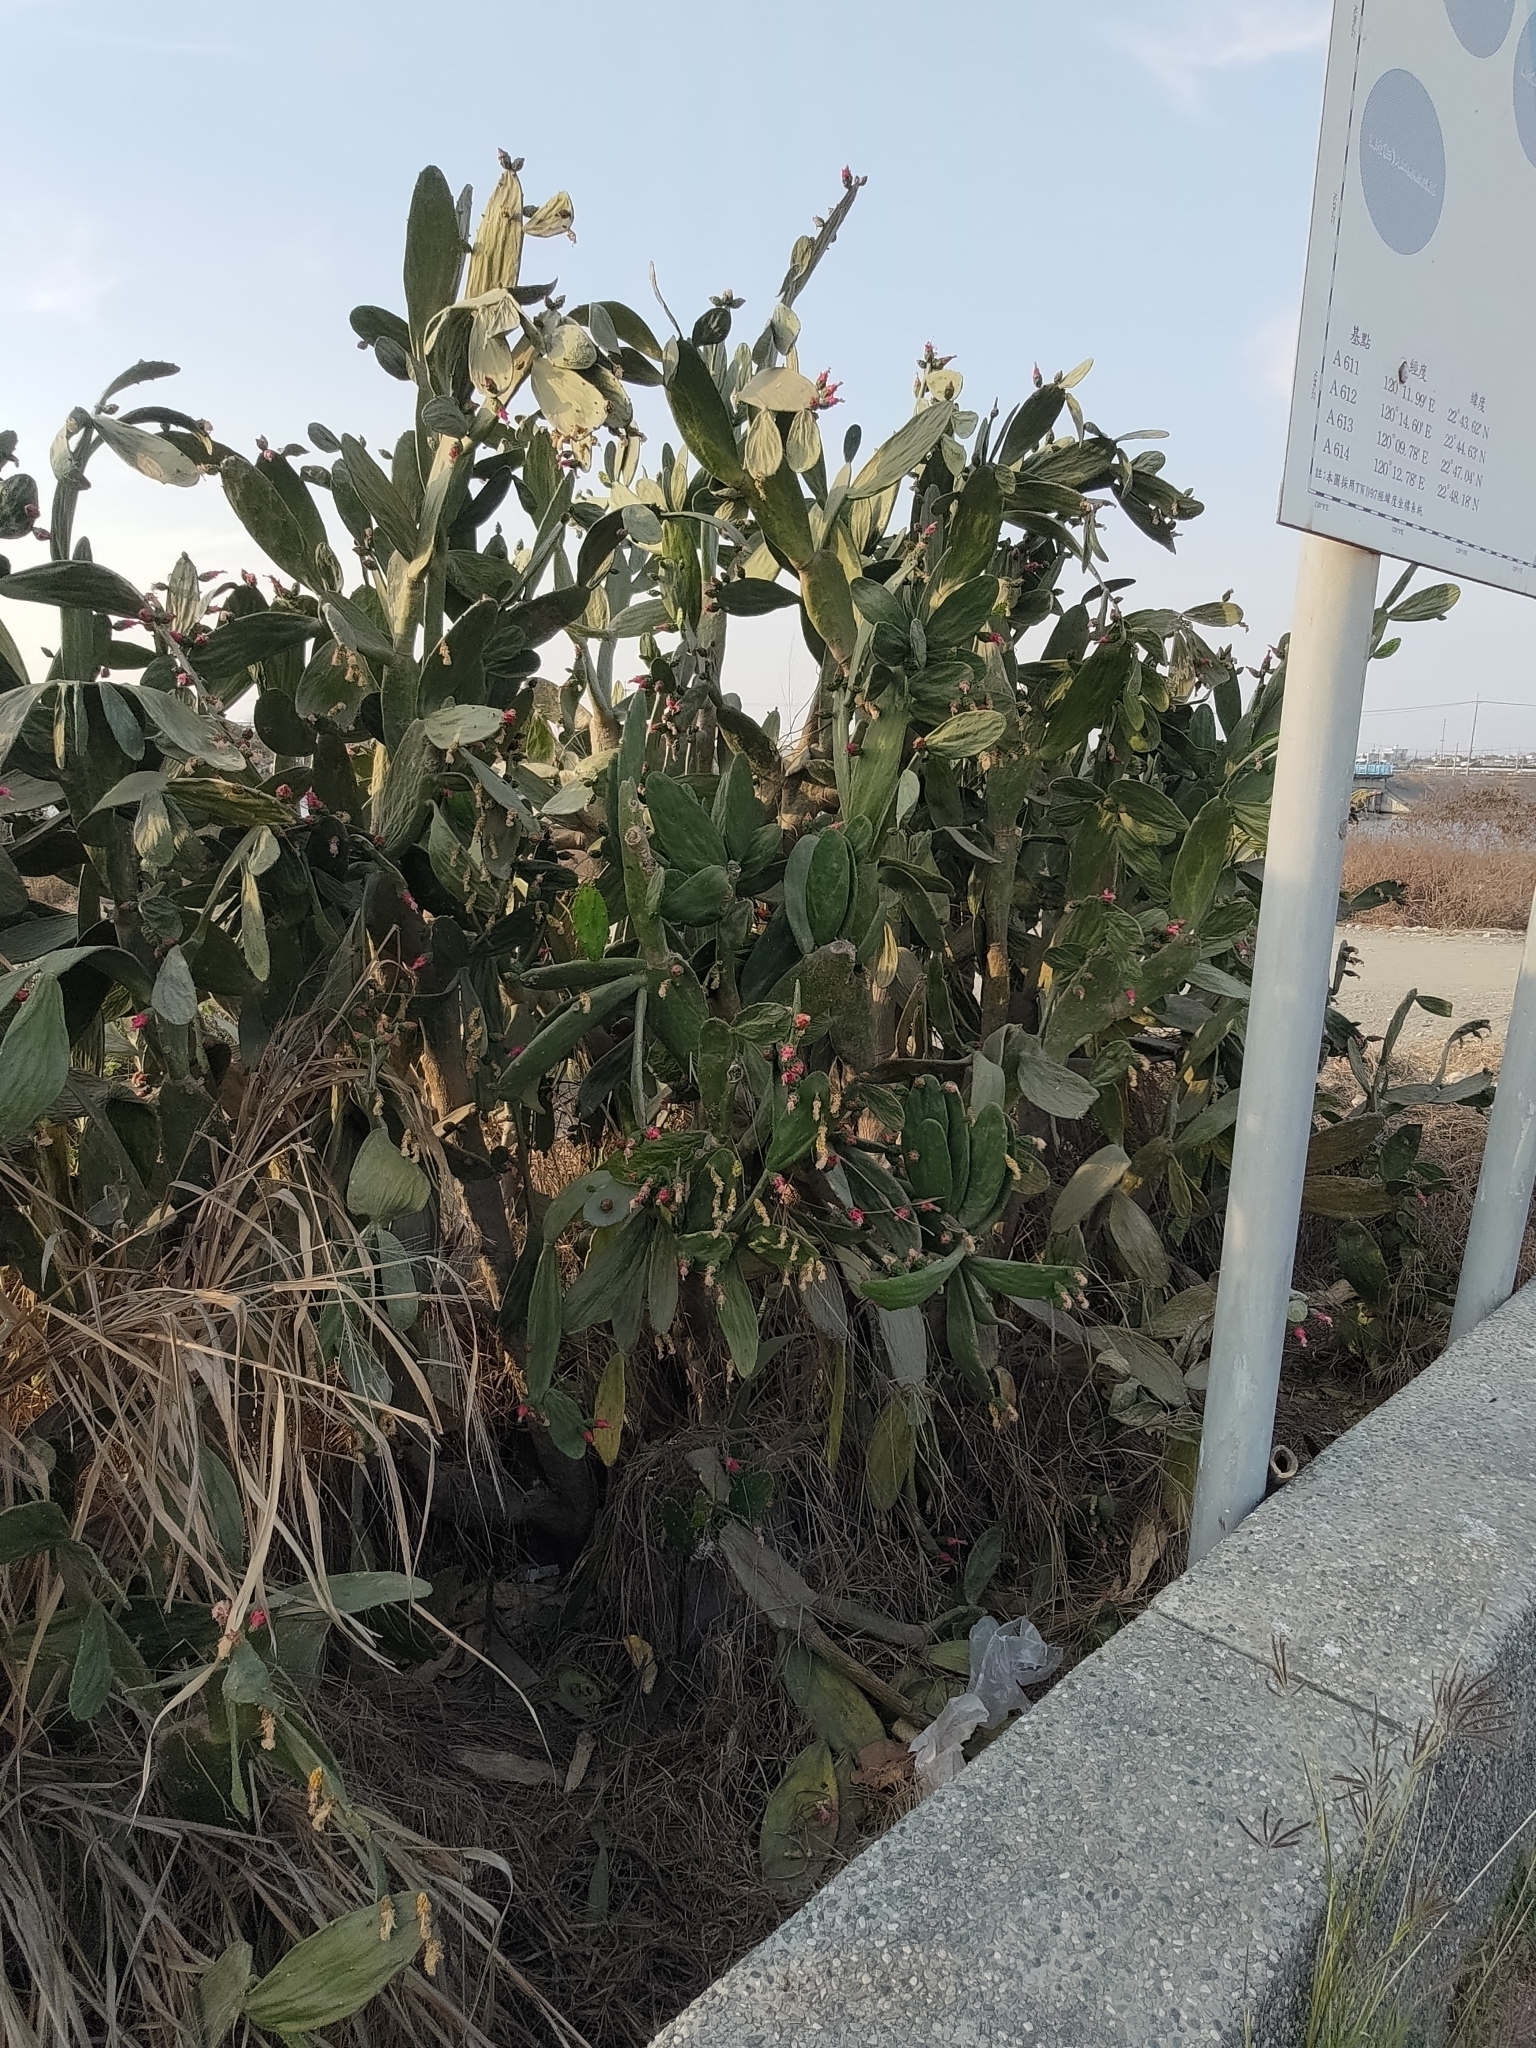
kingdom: Plantae
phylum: Tracheophyta
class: Magnoliopsida
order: Caryophyllales
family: Cactaceae
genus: Opuntia
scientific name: Opuntia cochenillifera
